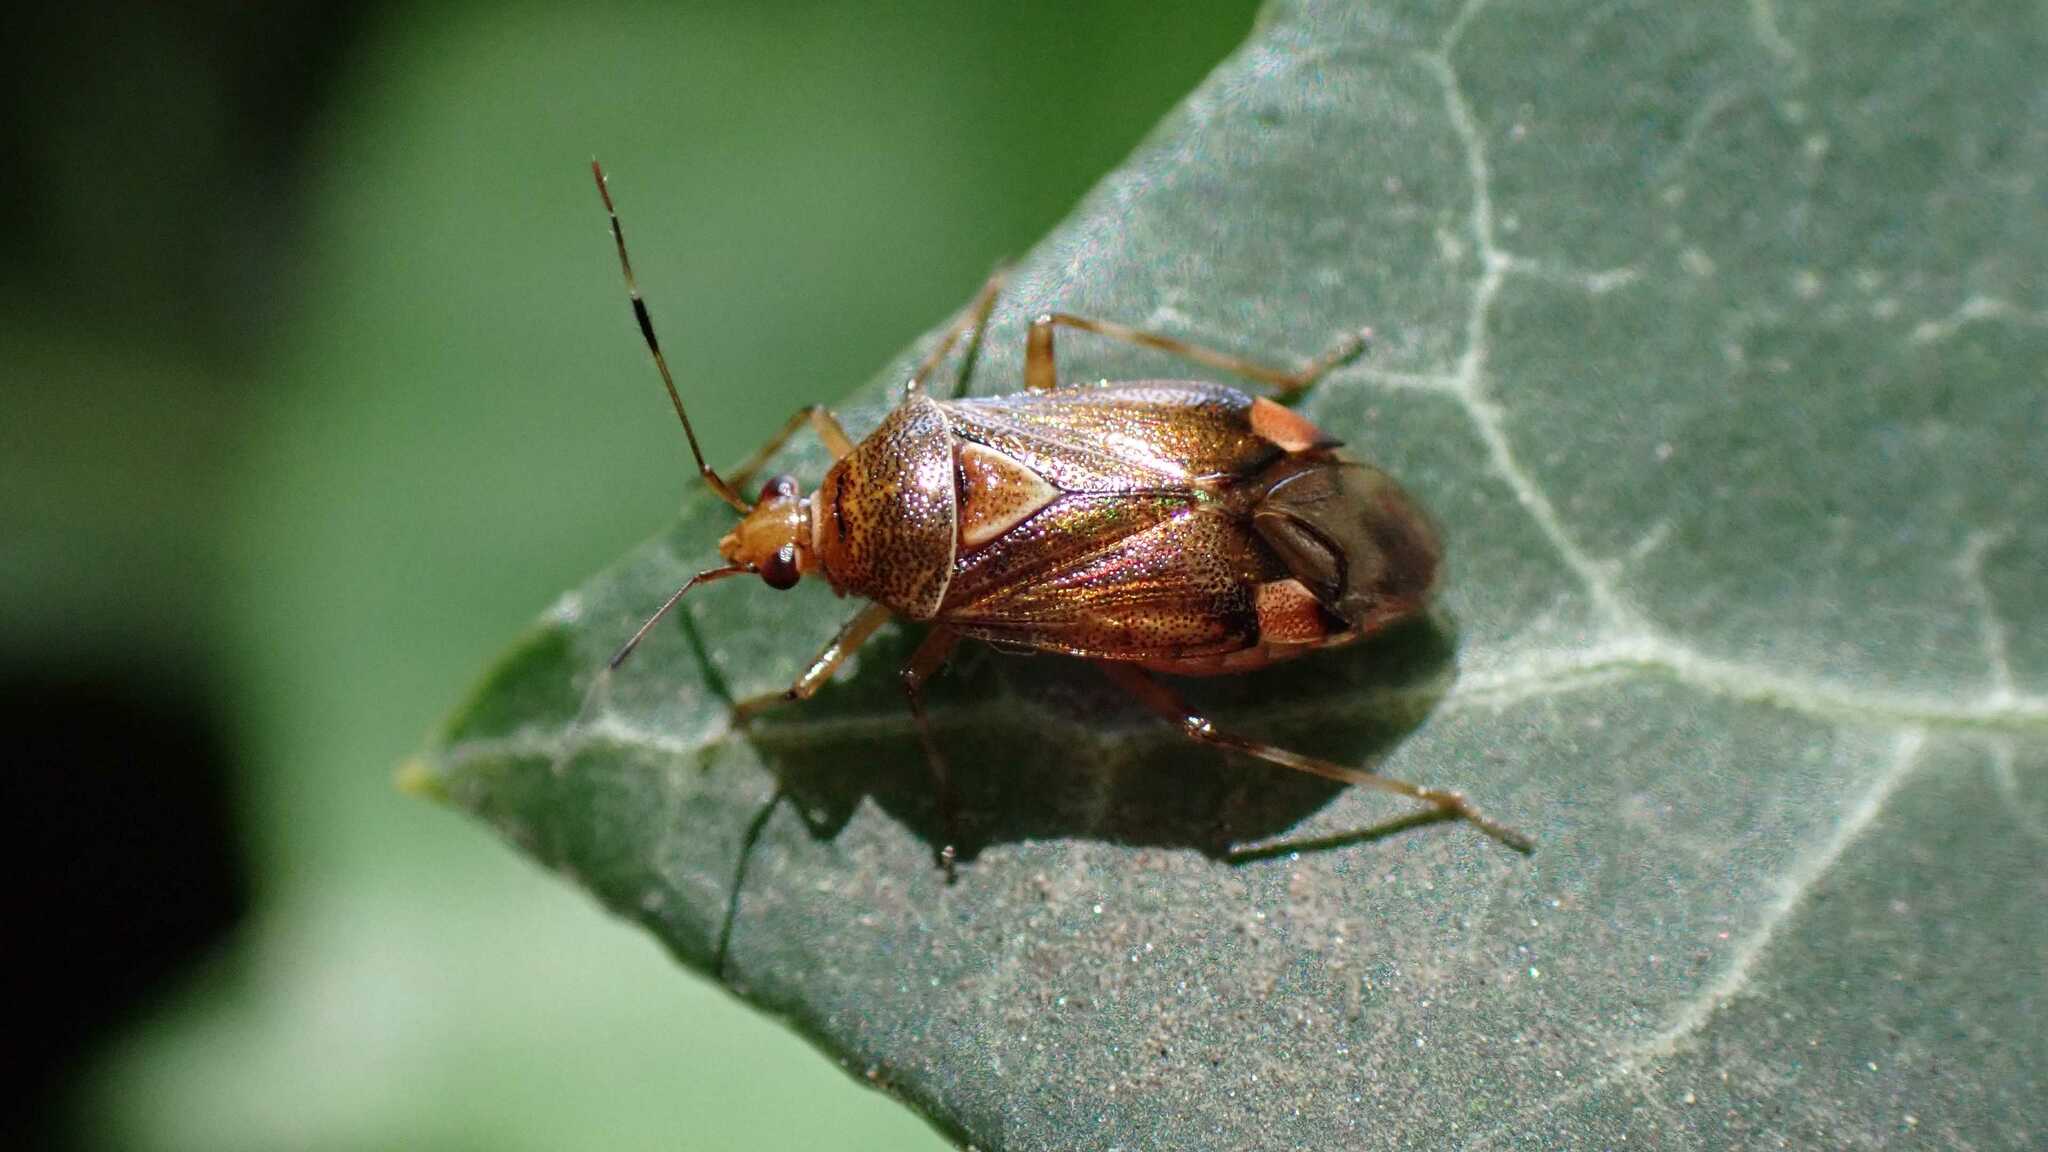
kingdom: Animalia
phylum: Arthropoda
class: Insecta
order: Hemiptera
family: Miridae
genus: Deraeocoris
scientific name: Deraeocoris flavilinea
